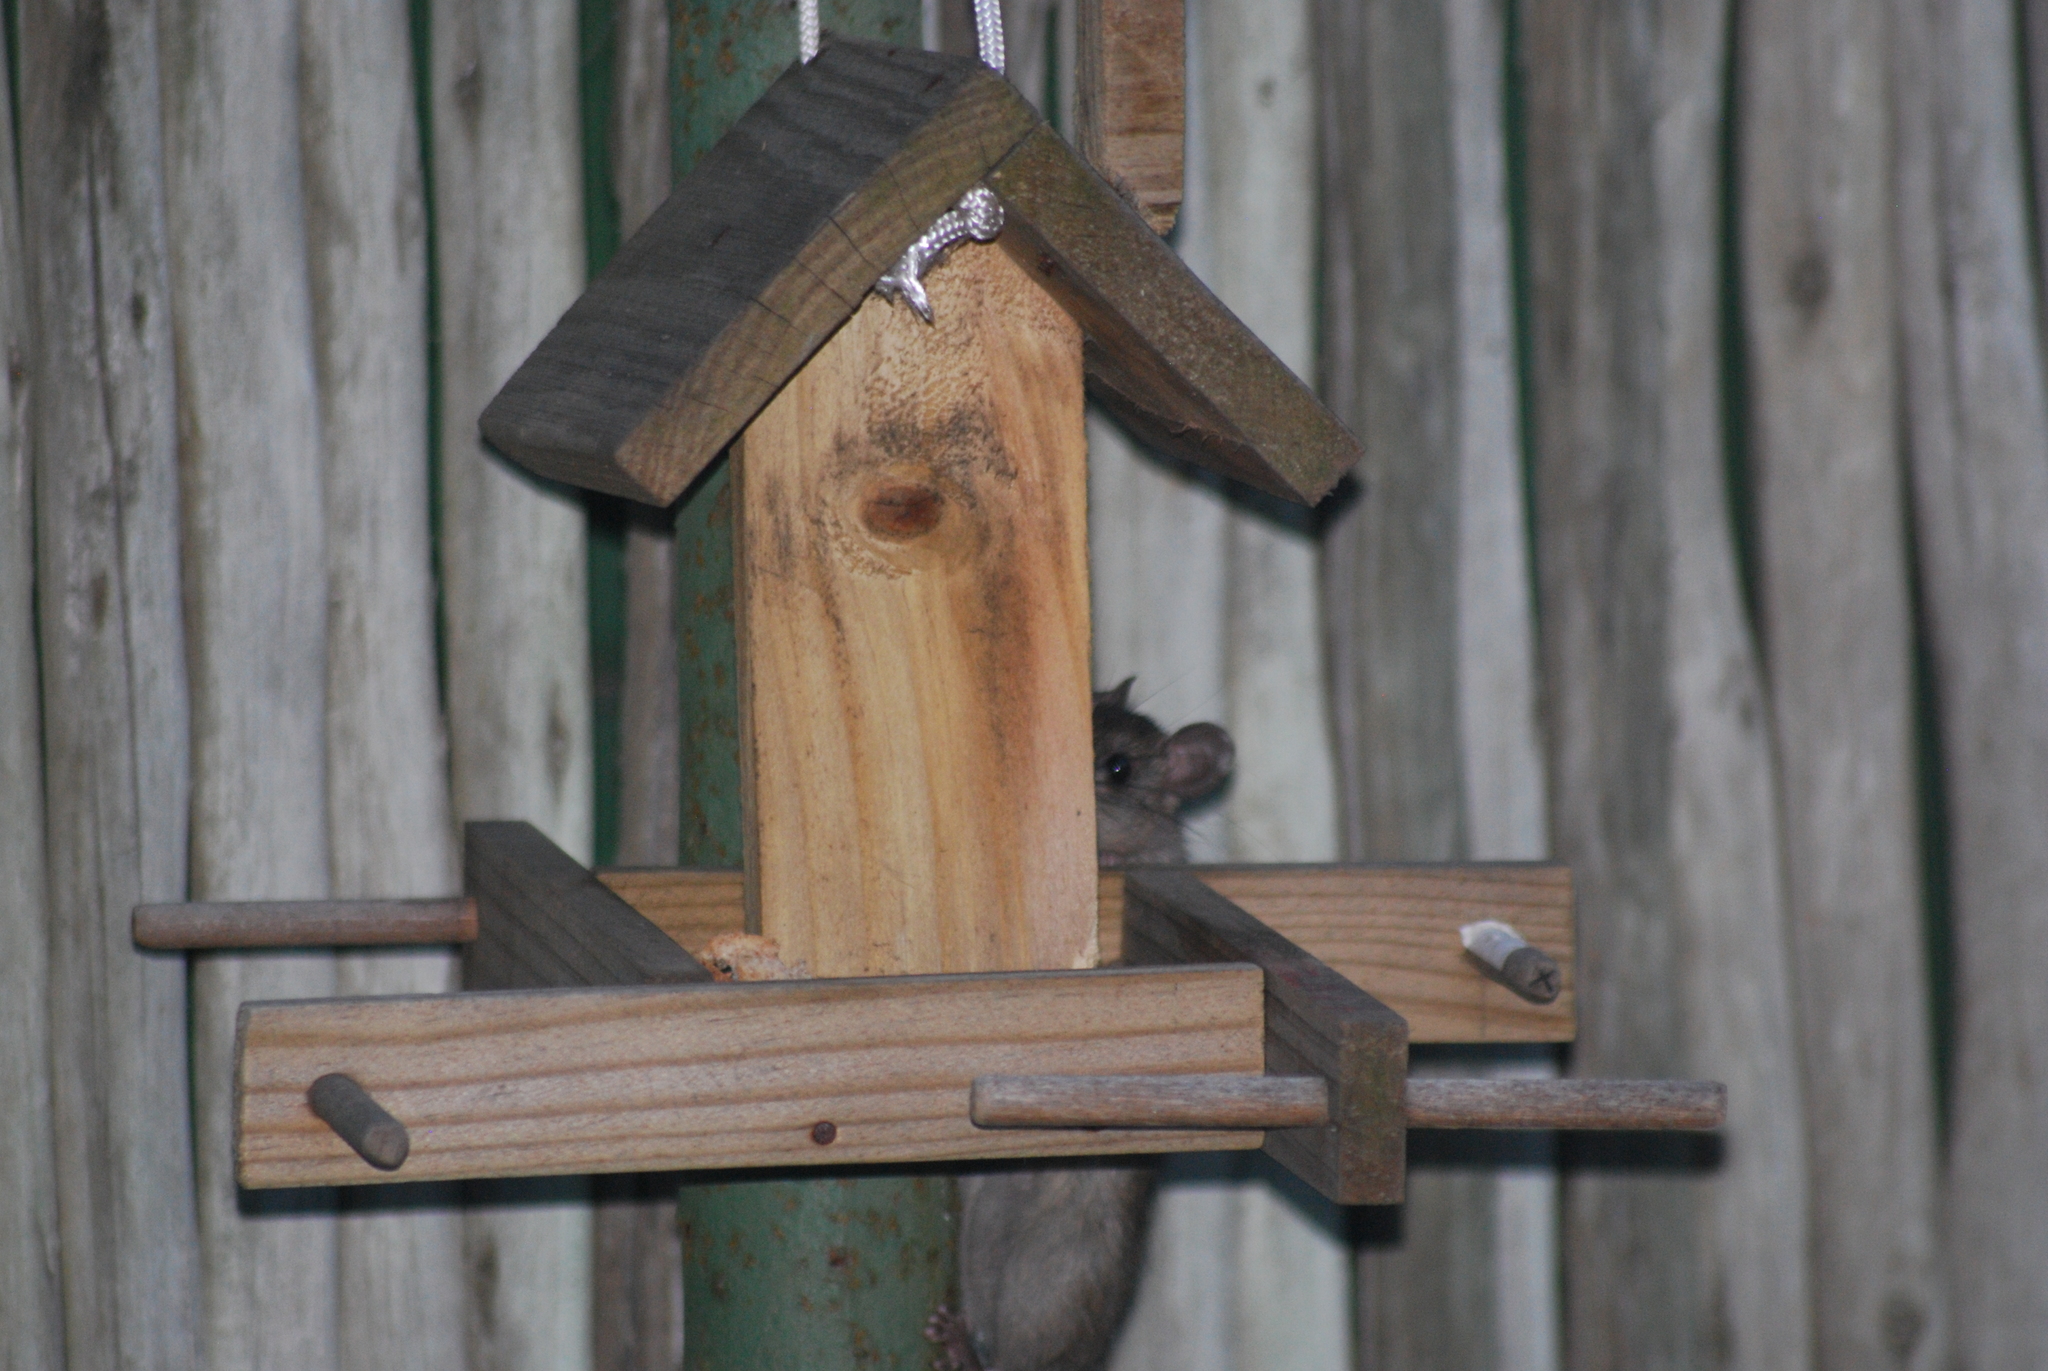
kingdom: Animalia
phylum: Chordata
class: Mammalia
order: Rodentia
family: Muridae
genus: Rattus
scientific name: Rattus rattus
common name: Black rat
